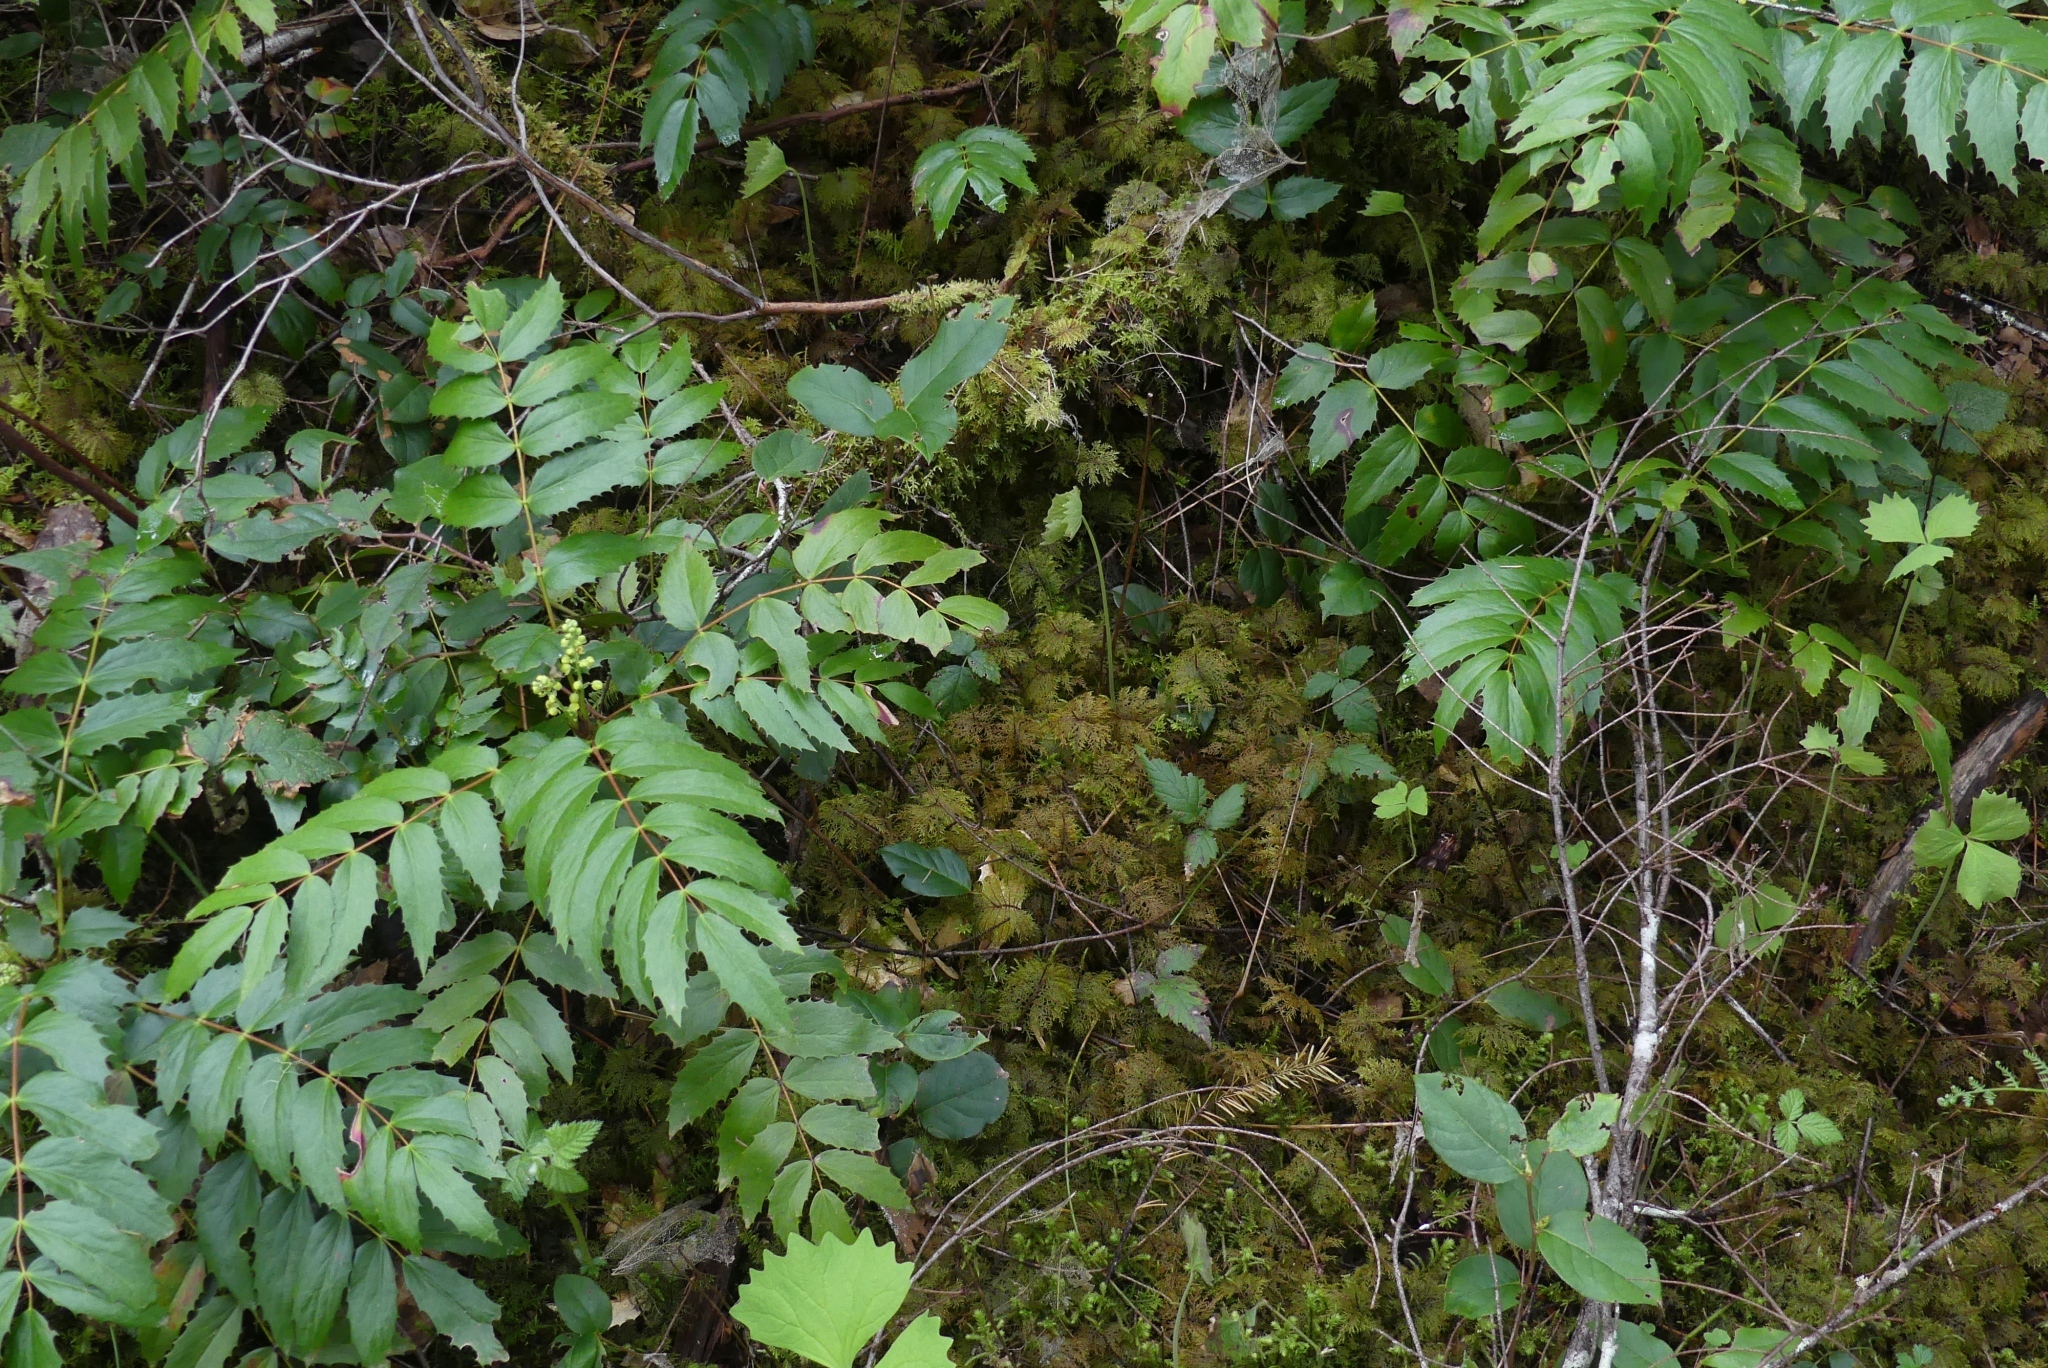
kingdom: Plantae
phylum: Bryophyta
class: Bryopsida
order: Hypnales
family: Hylocomiaceae
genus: Hylocomium
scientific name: Hylocomium splendens
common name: Stairstep moss
